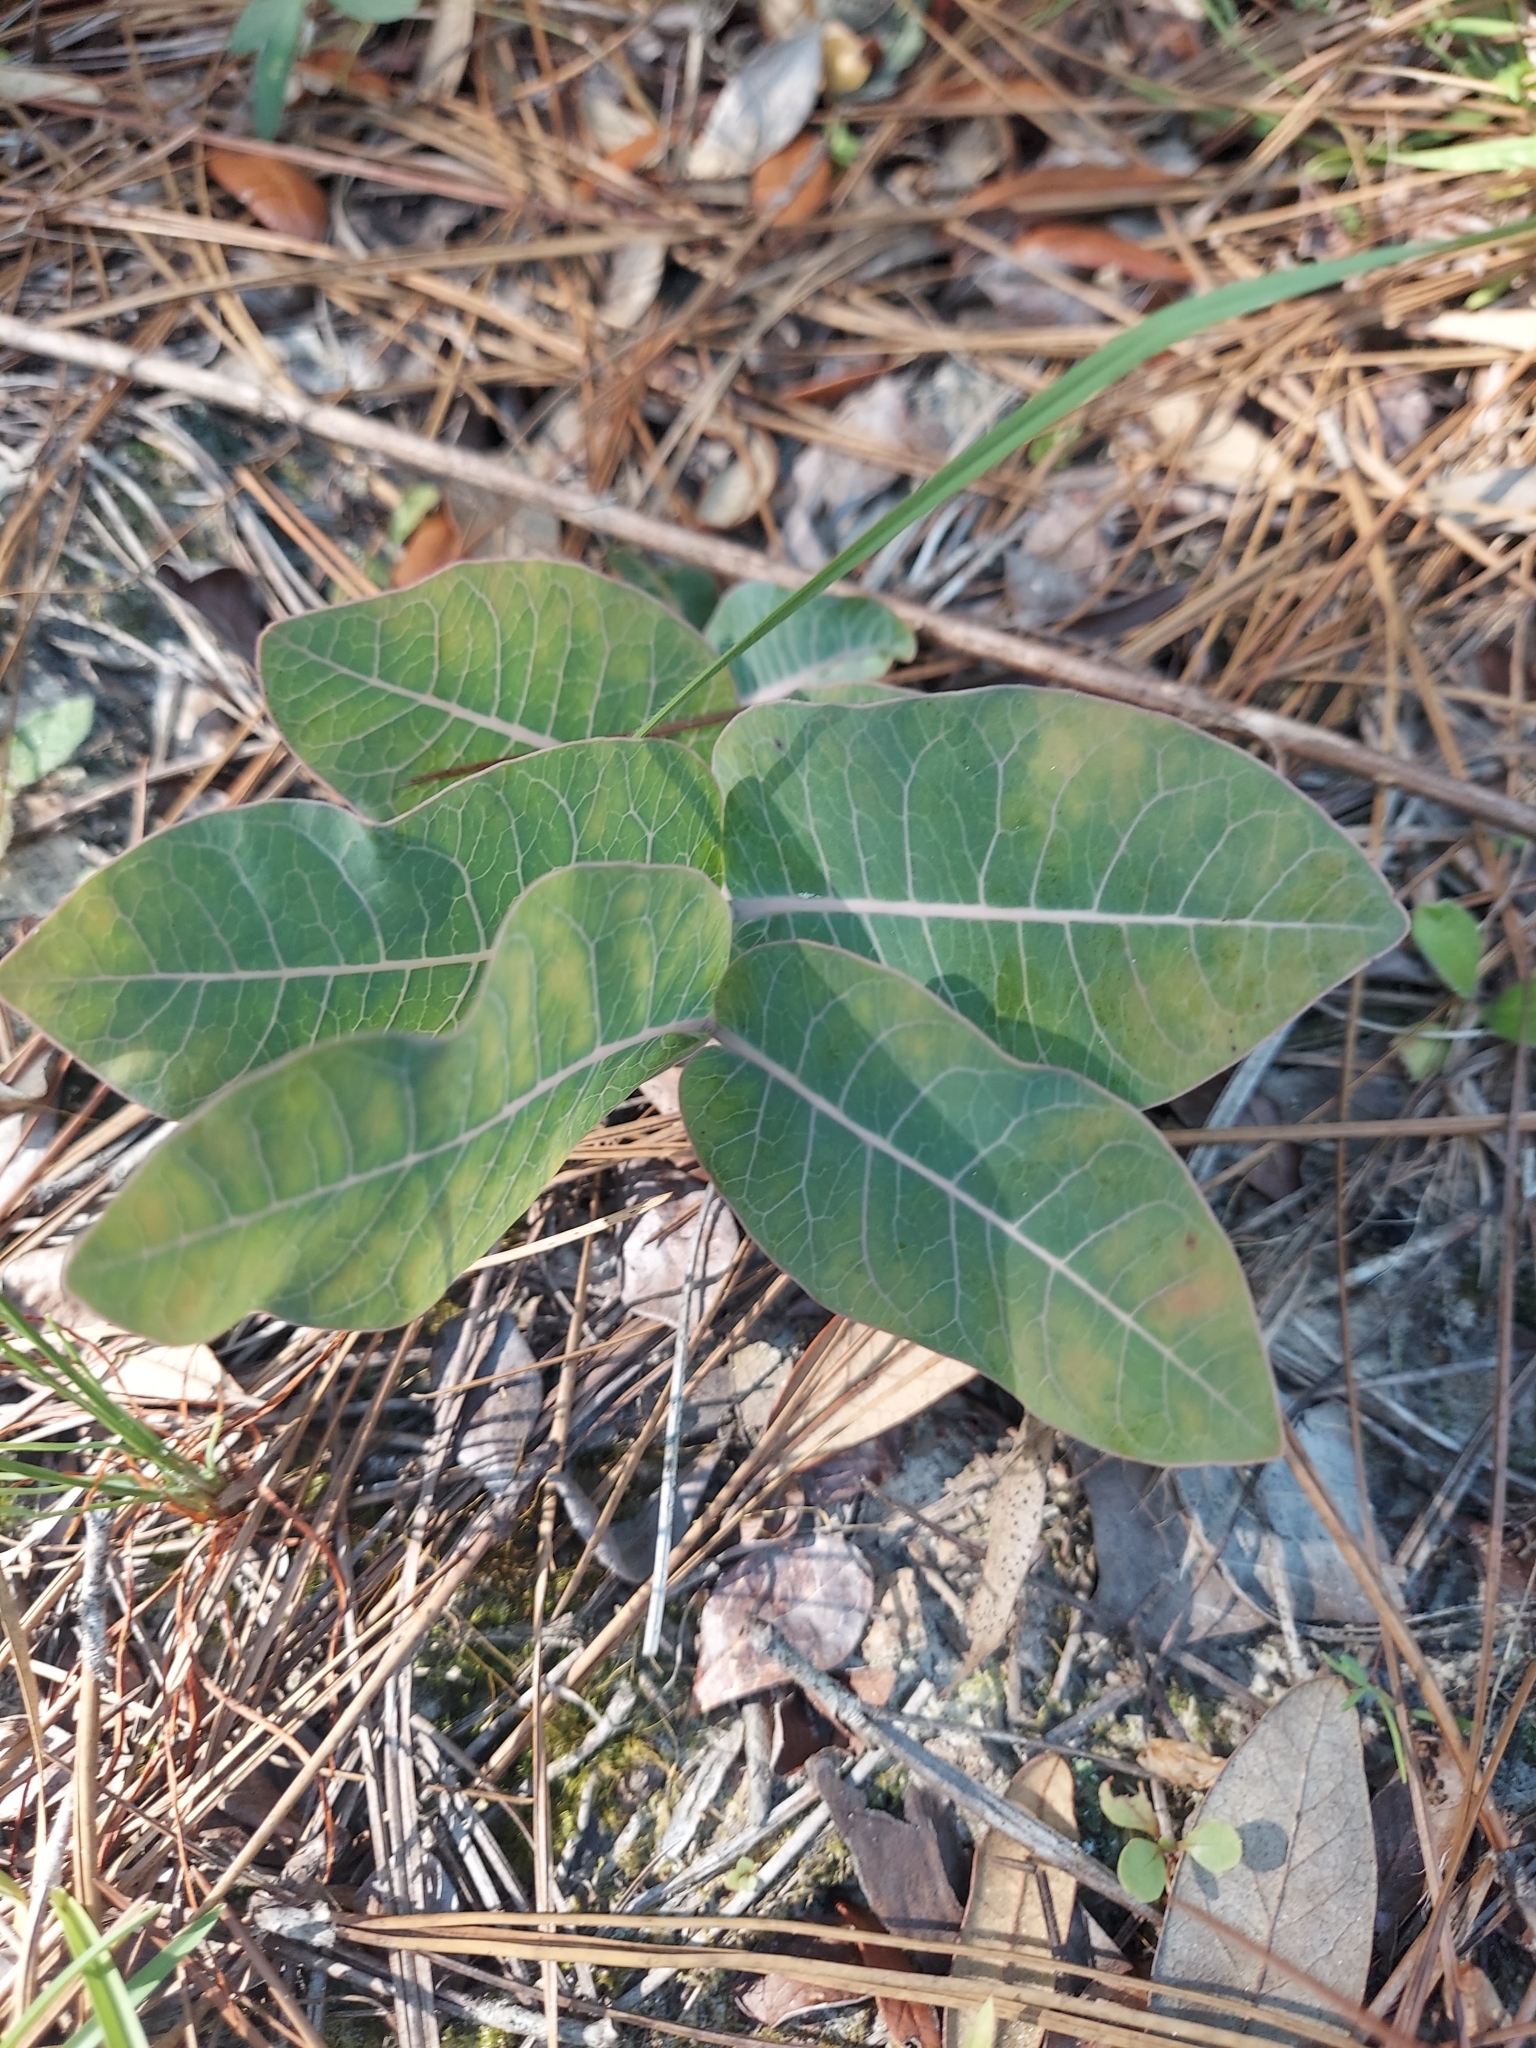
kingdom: Plantae
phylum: Tracheophyta
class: Magnoliopsida
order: Gentianales
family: Apocynaceae
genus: Asclepias
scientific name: Asclepias humistrata
